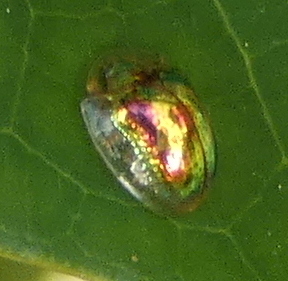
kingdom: Animalia
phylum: Arthropoda
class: Insecta
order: Coleoptera
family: Chrysomelidae
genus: Charidotella
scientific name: Charidotella zona
